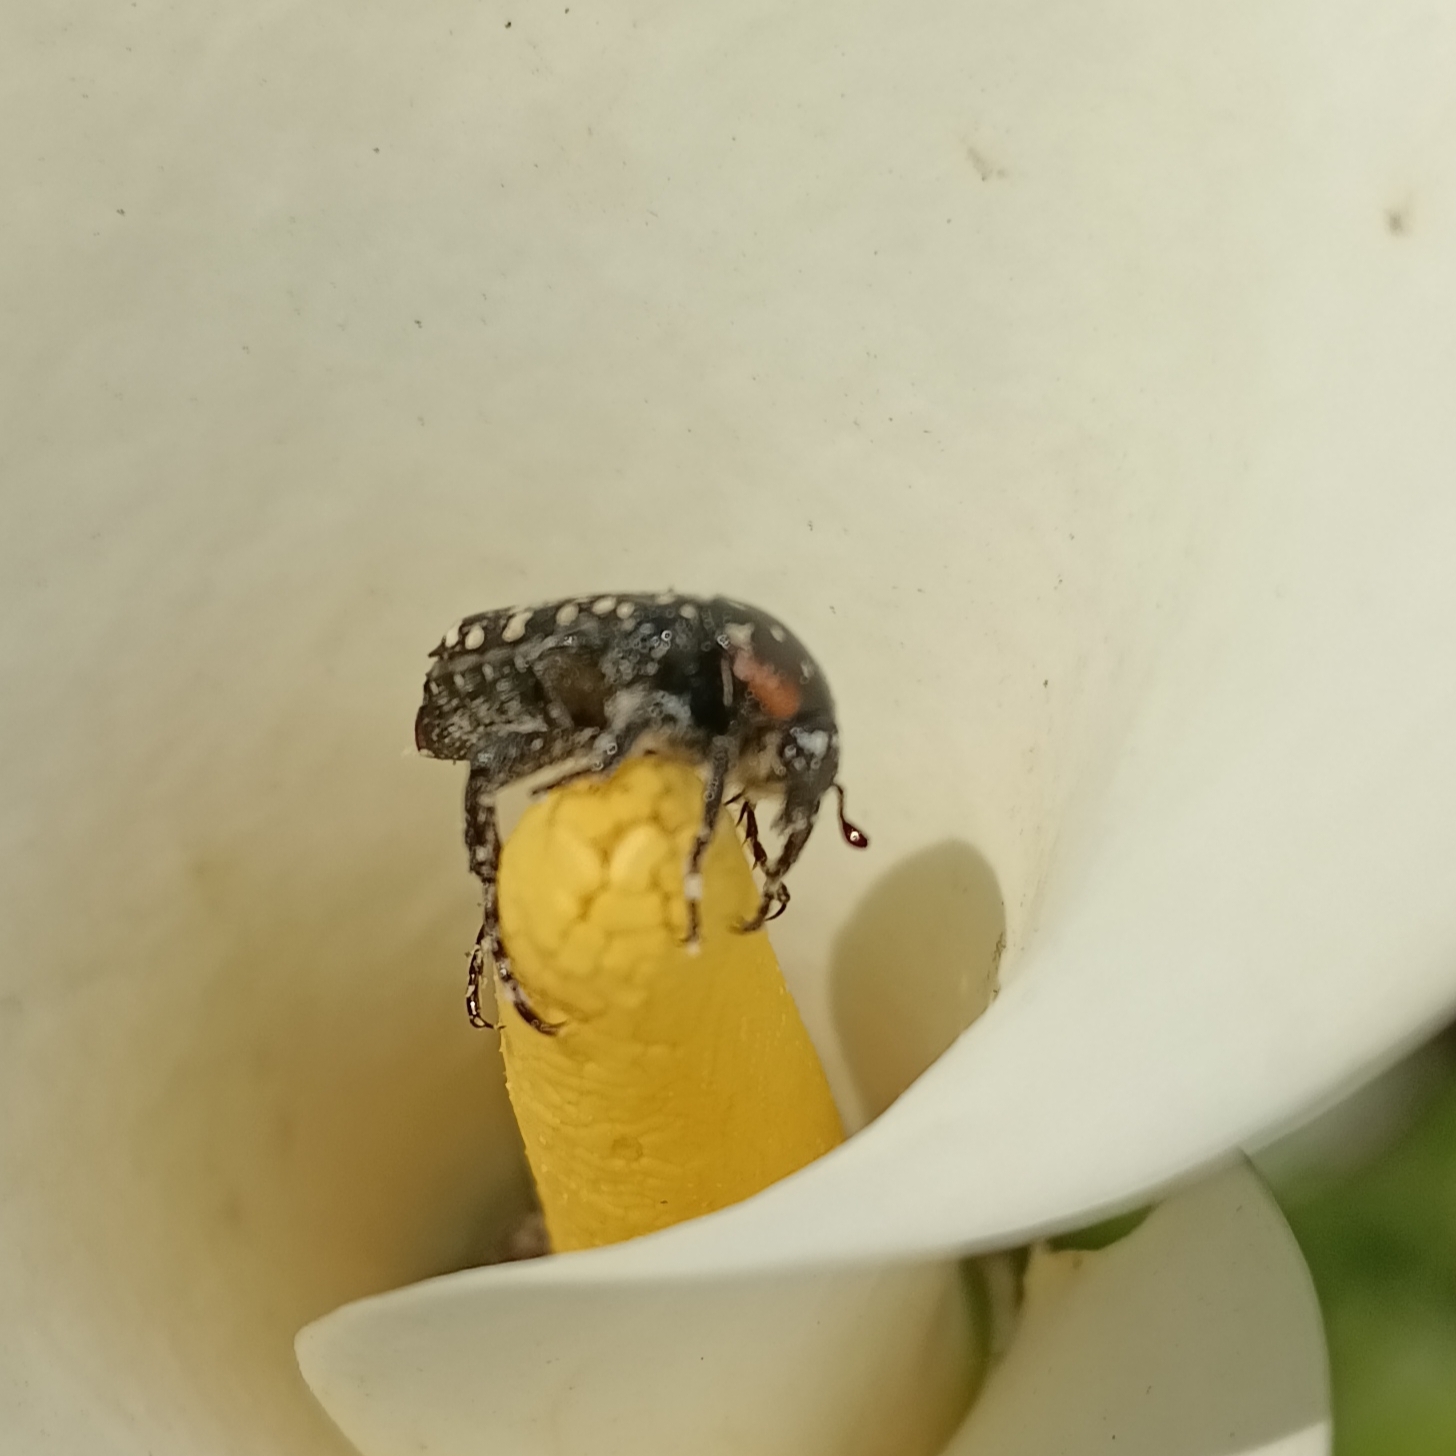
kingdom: Animalia
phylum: Arthropoda
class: Insecta
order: Coleoptera
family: Scarabaeidae
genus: Oxythyrea
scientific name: Oxythyrea
